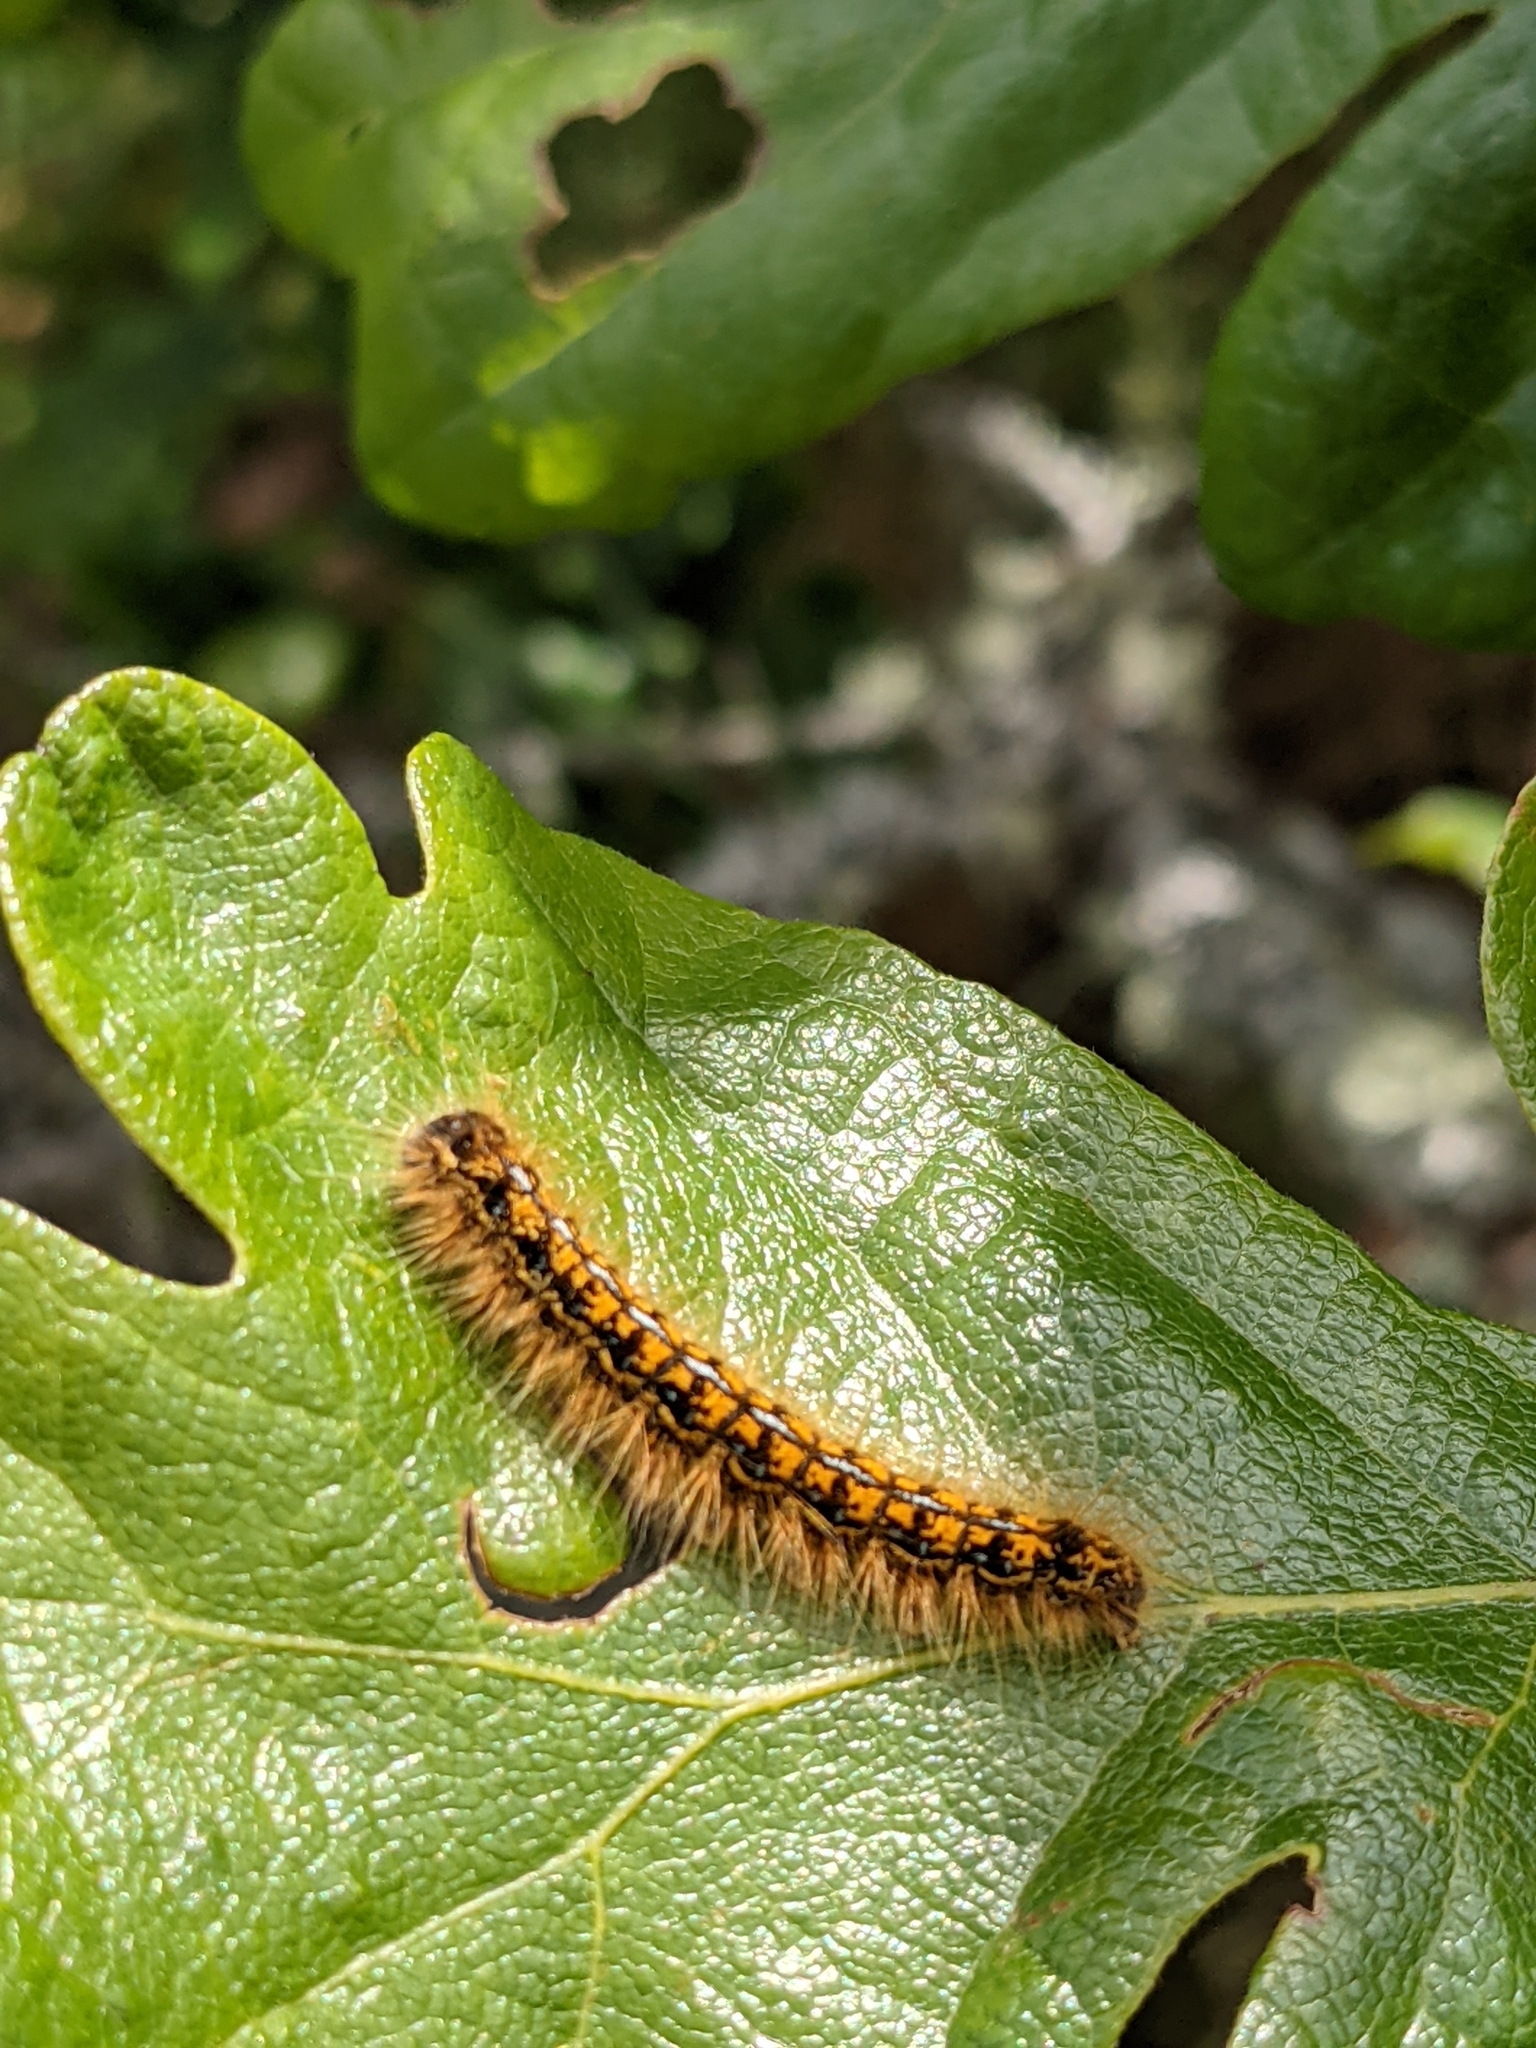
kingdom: Animalia
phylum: Arthropoda
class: Insecta
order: Lepidoptera
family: Lasiocampidae
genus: Malacosoma
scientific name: Malacosoma californica
